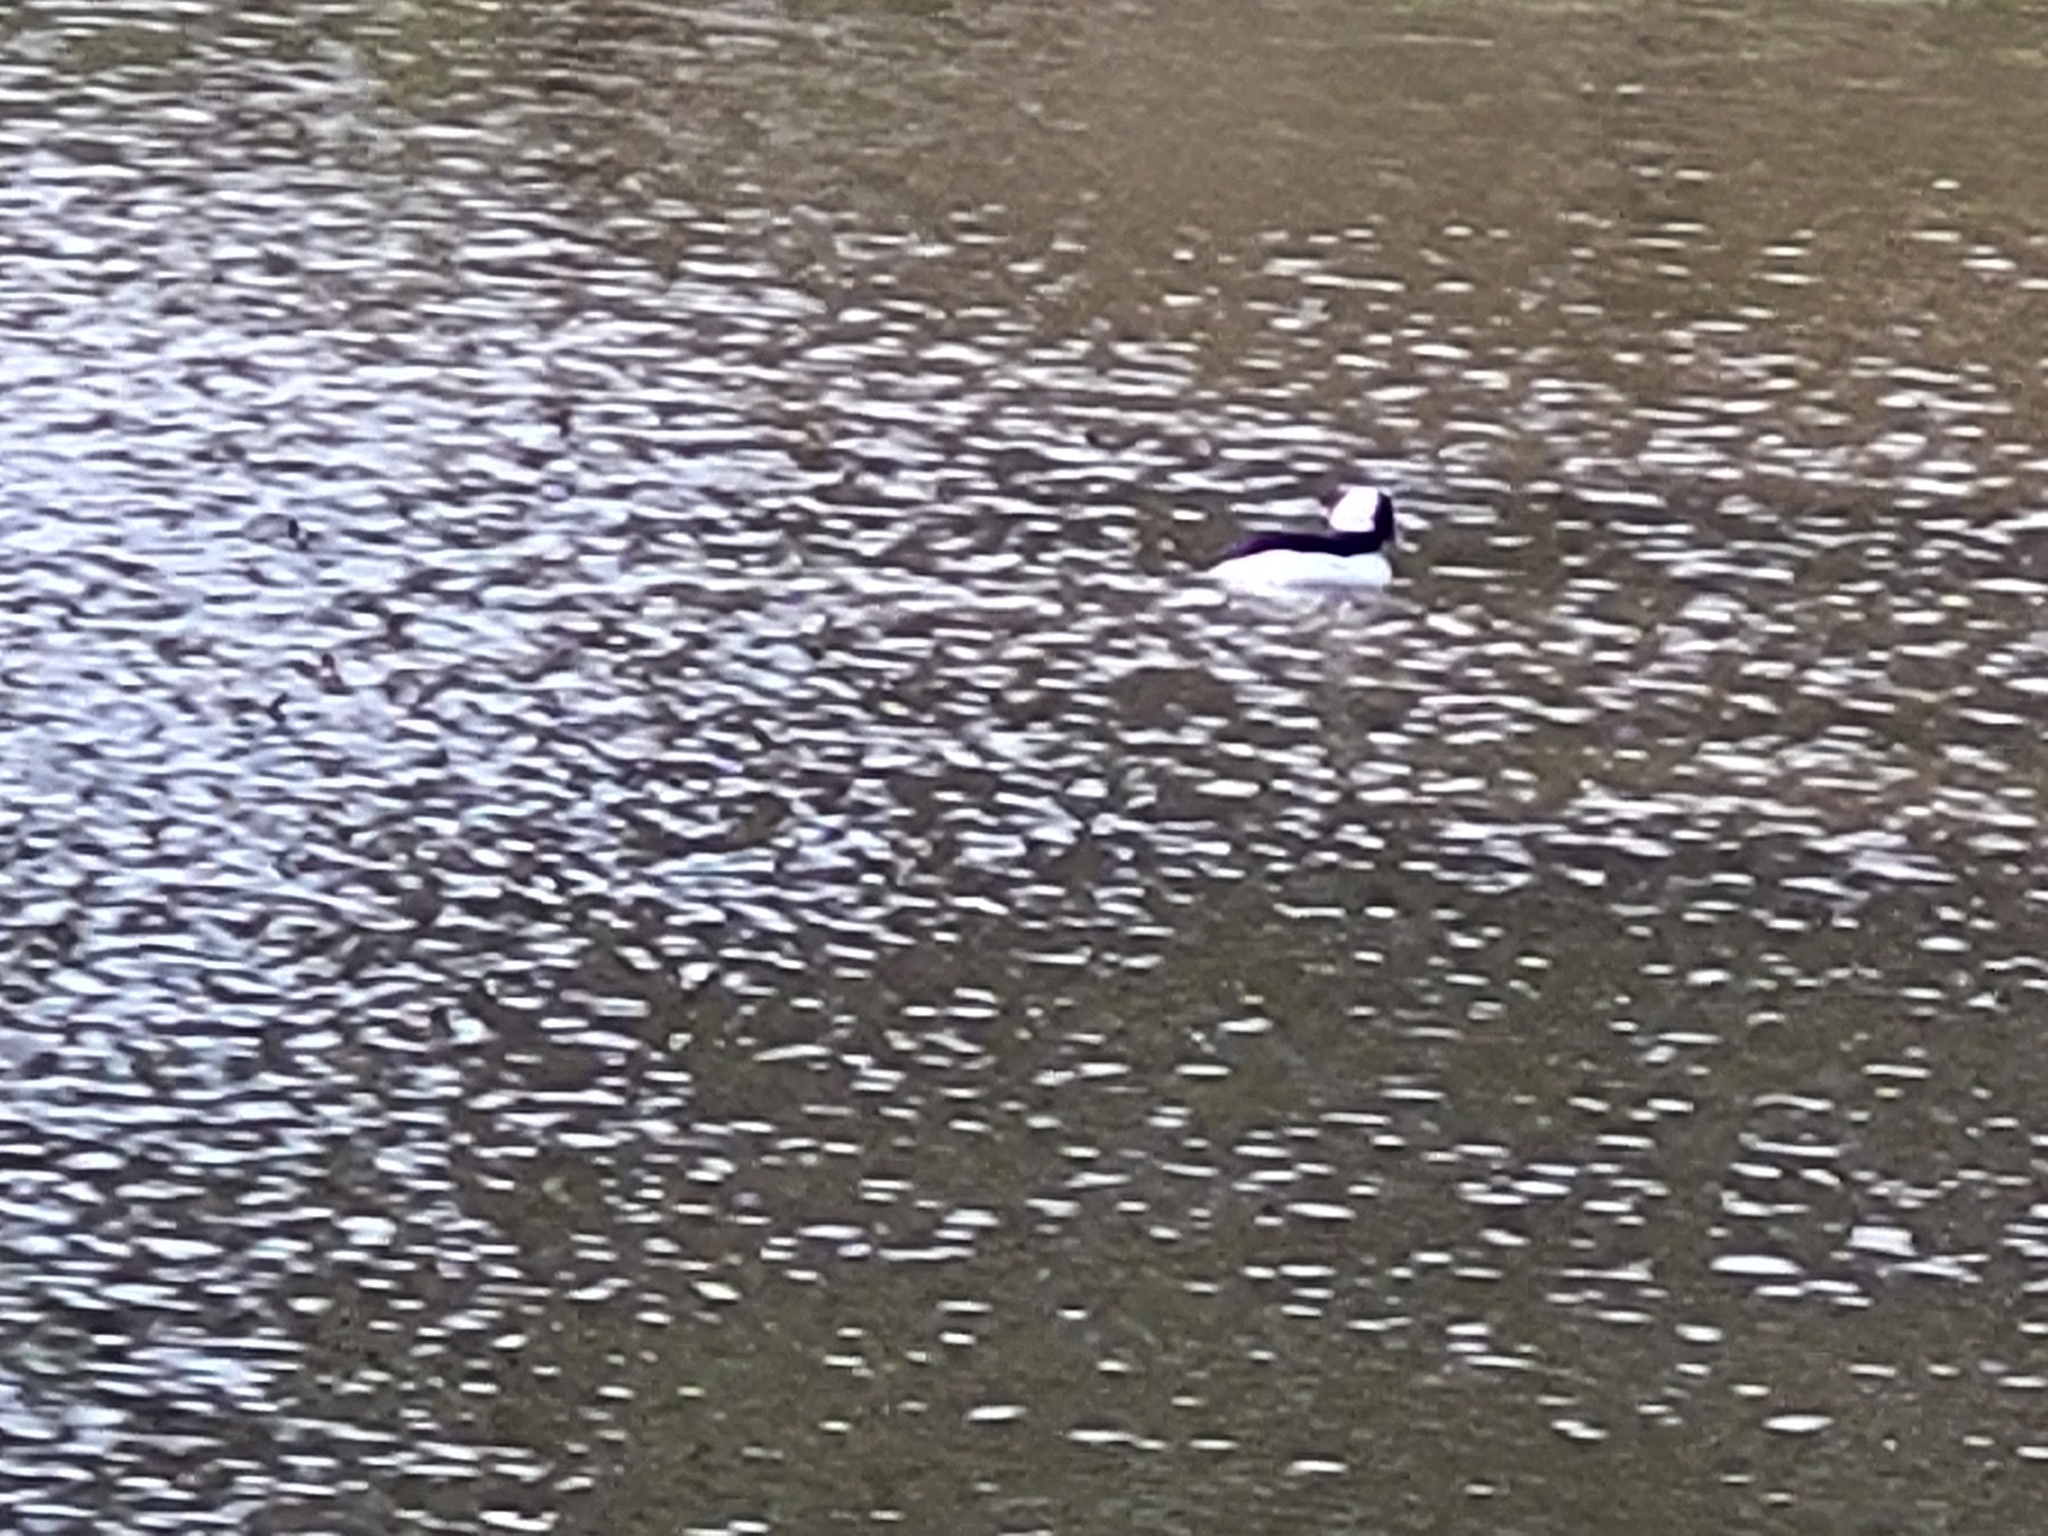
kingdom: Animalia
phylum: Chordata
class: Aves
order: Anseriformes
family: Anatidae
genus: Bucephala
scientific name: Bucephala albeola
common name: Bufflehead
